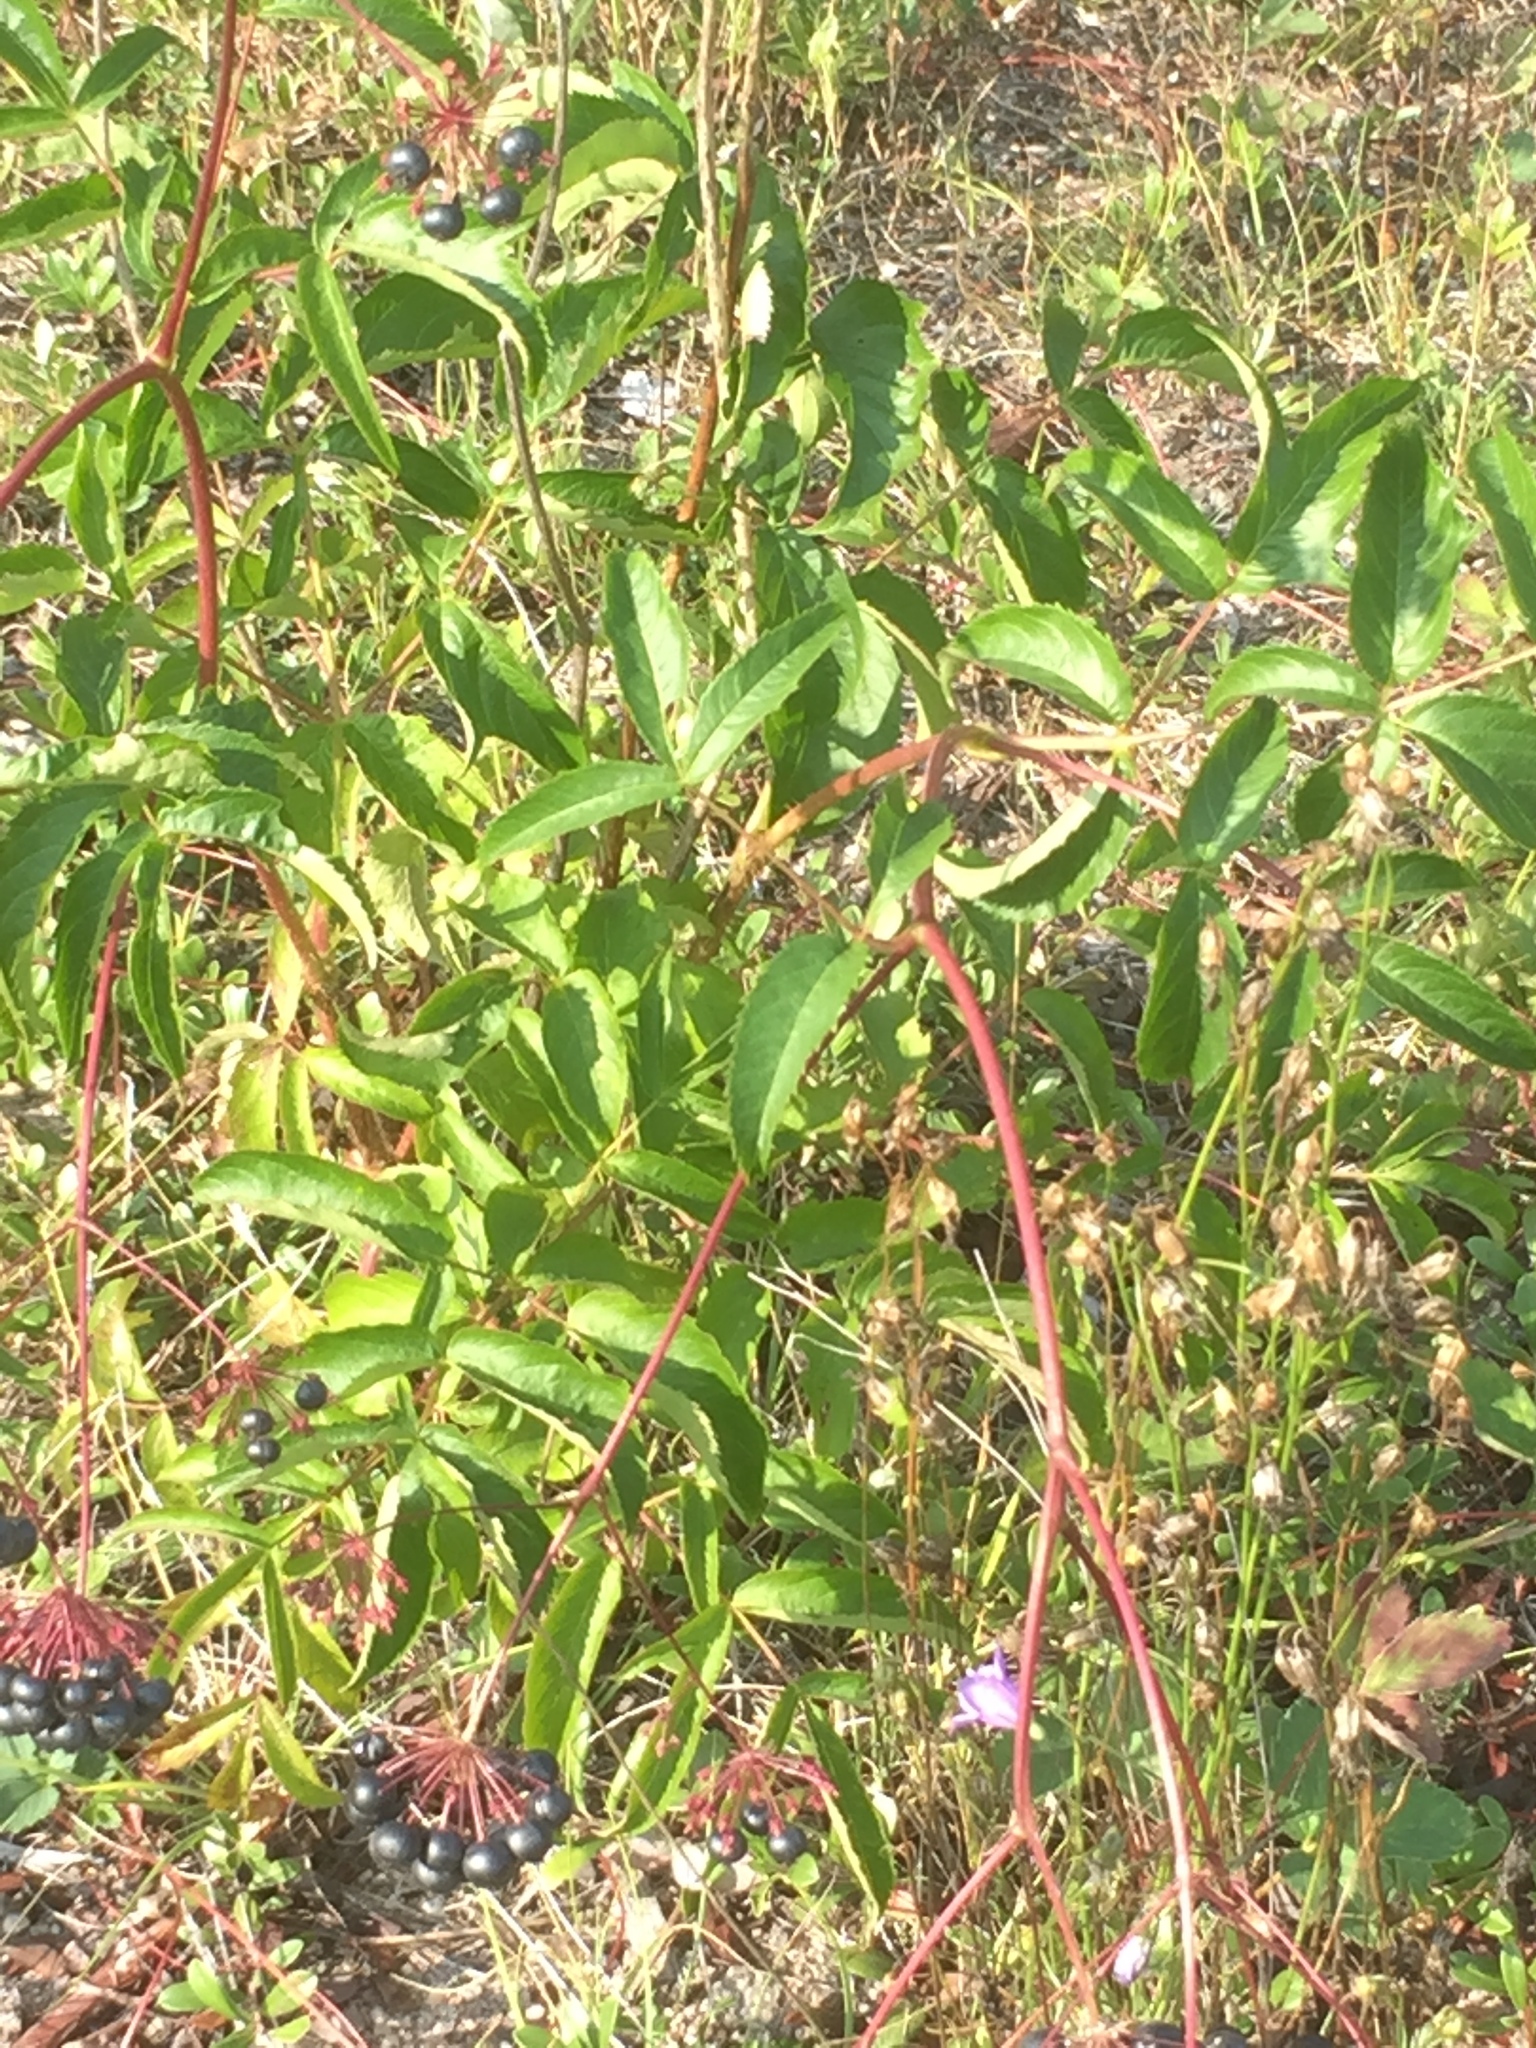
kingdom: Plantae
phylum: Tracheophyta
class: Magnoliopsida
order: Apiales
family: Araliaceae
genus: Aralia
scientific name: Aralia hispida
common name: Bristly sarsaparilla
